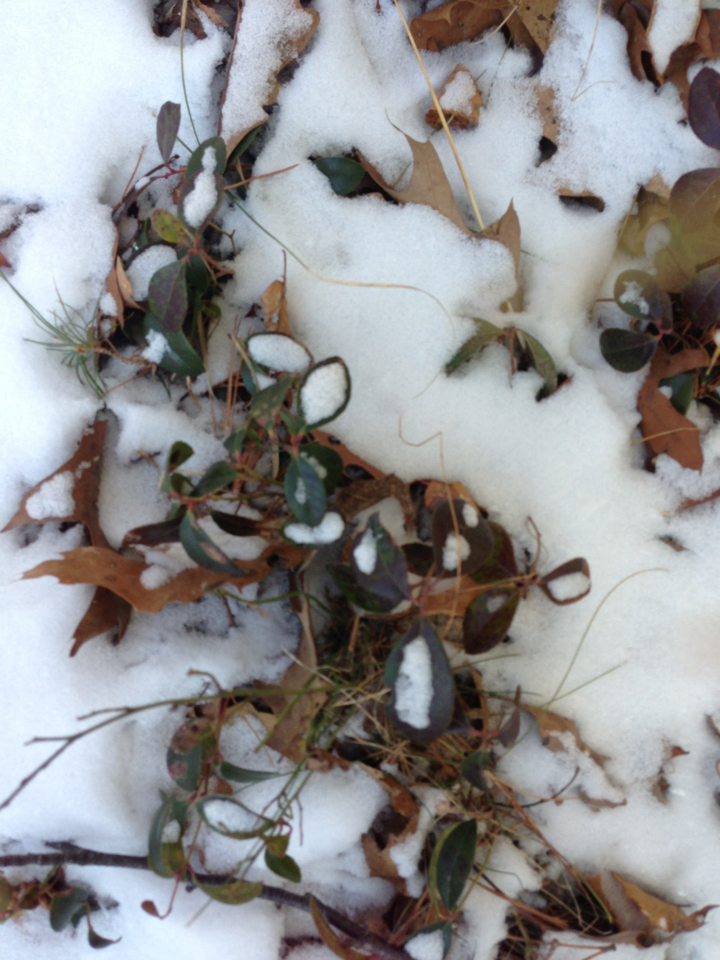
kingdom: Plantae
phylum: Tracheophyta
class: Magnoliopsida
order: Ericales
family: Ericaceae
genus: Gaultheria
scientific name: Gaultheria procumbens
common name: Checkerberry
